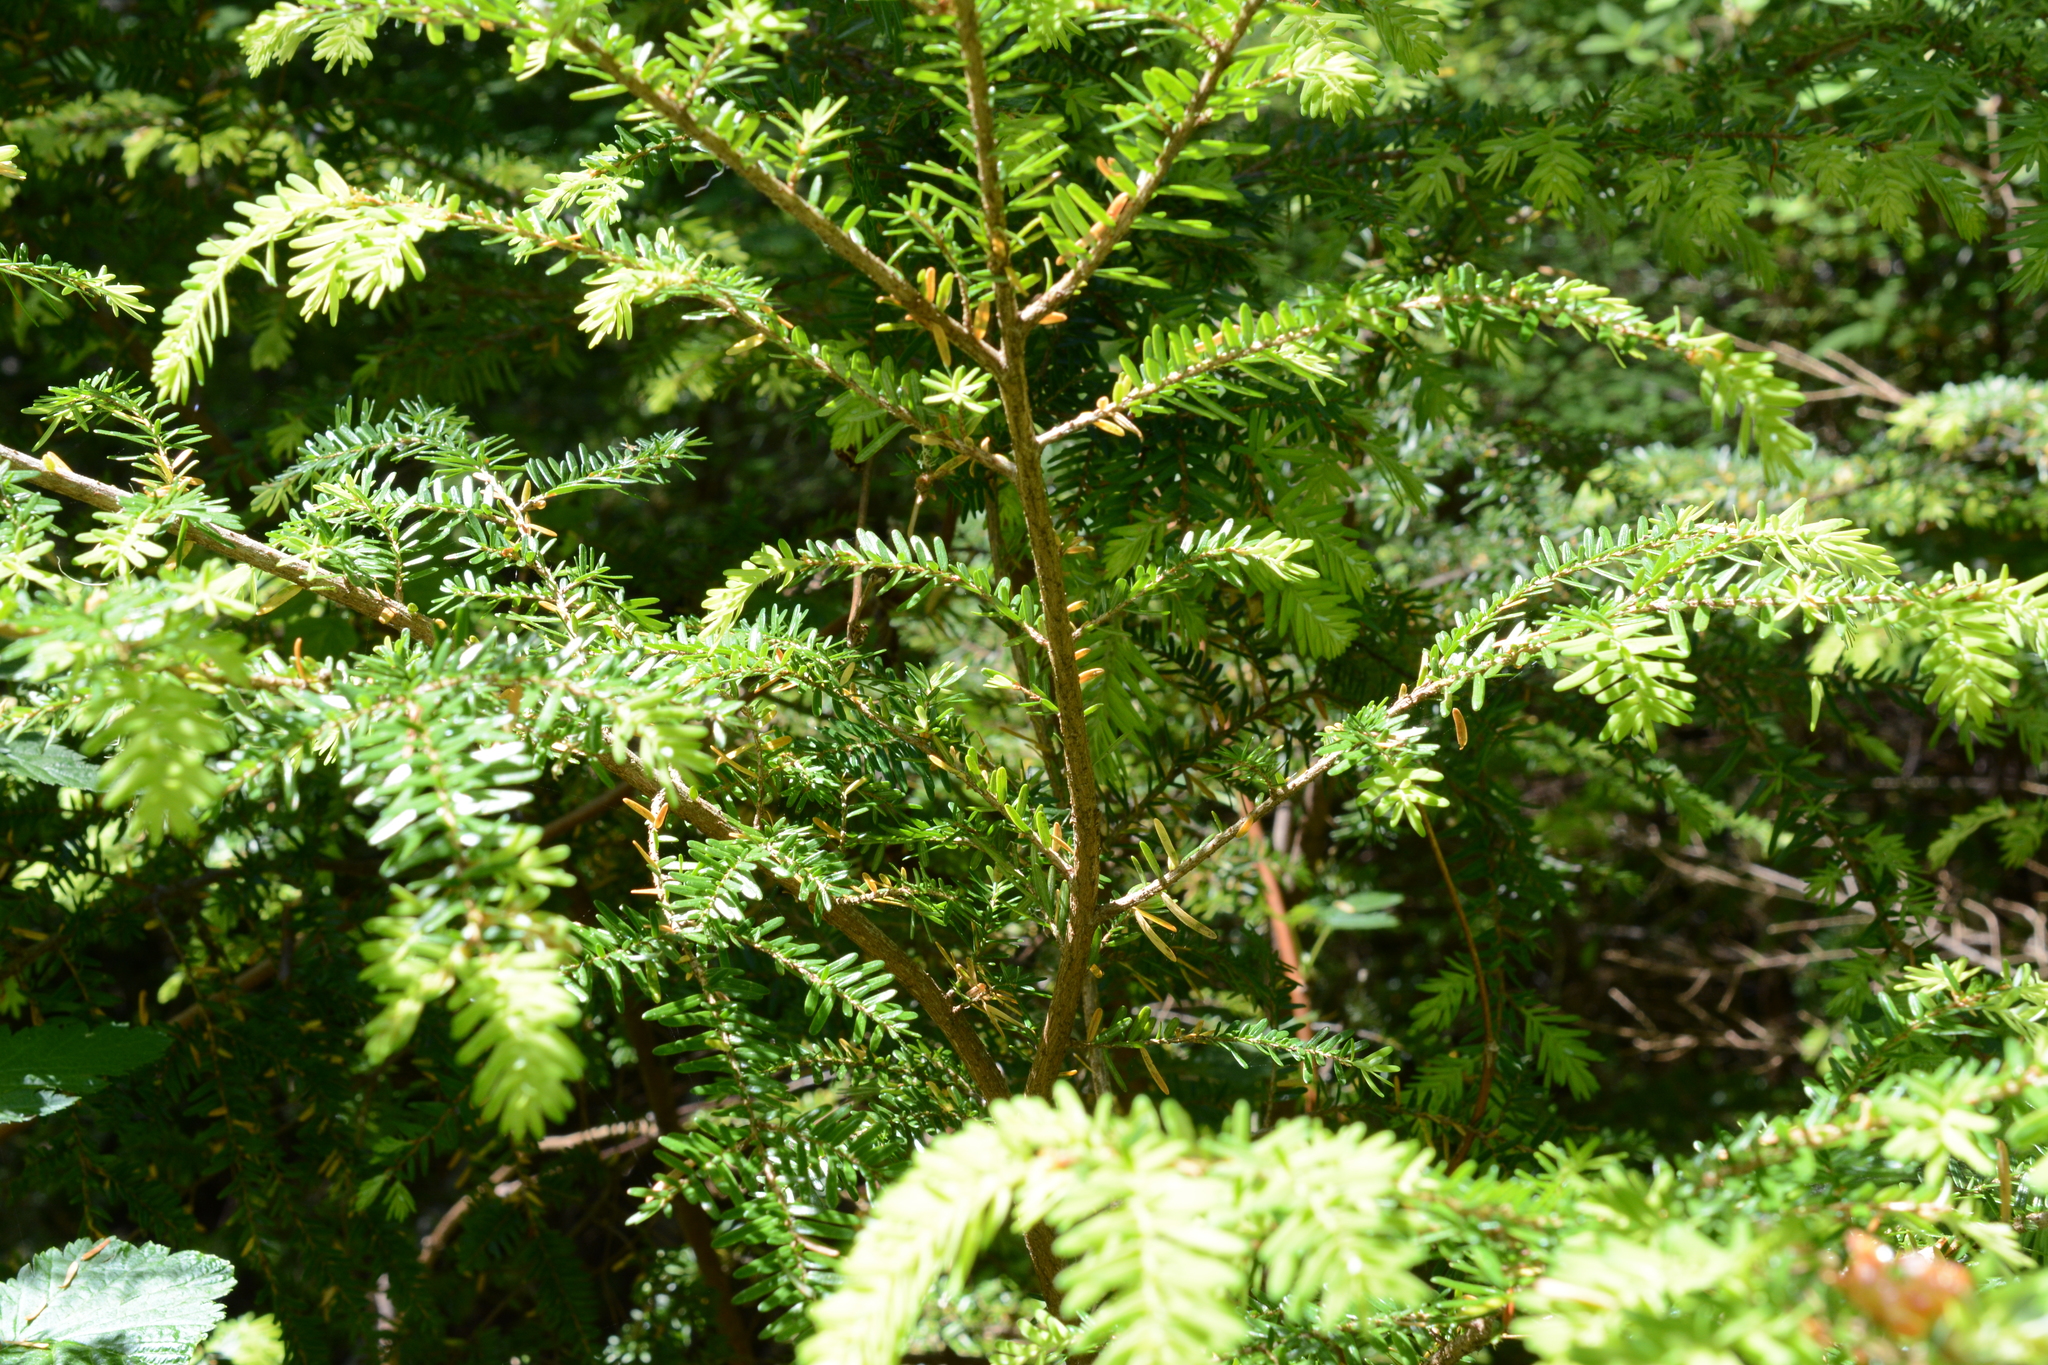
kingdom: Plantae
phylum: Tracheophyta
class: Pinopsida
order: Pinales
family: Pinaceae
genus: Tsuga
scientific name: Tsuga heterophylla
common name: Western hemlock
